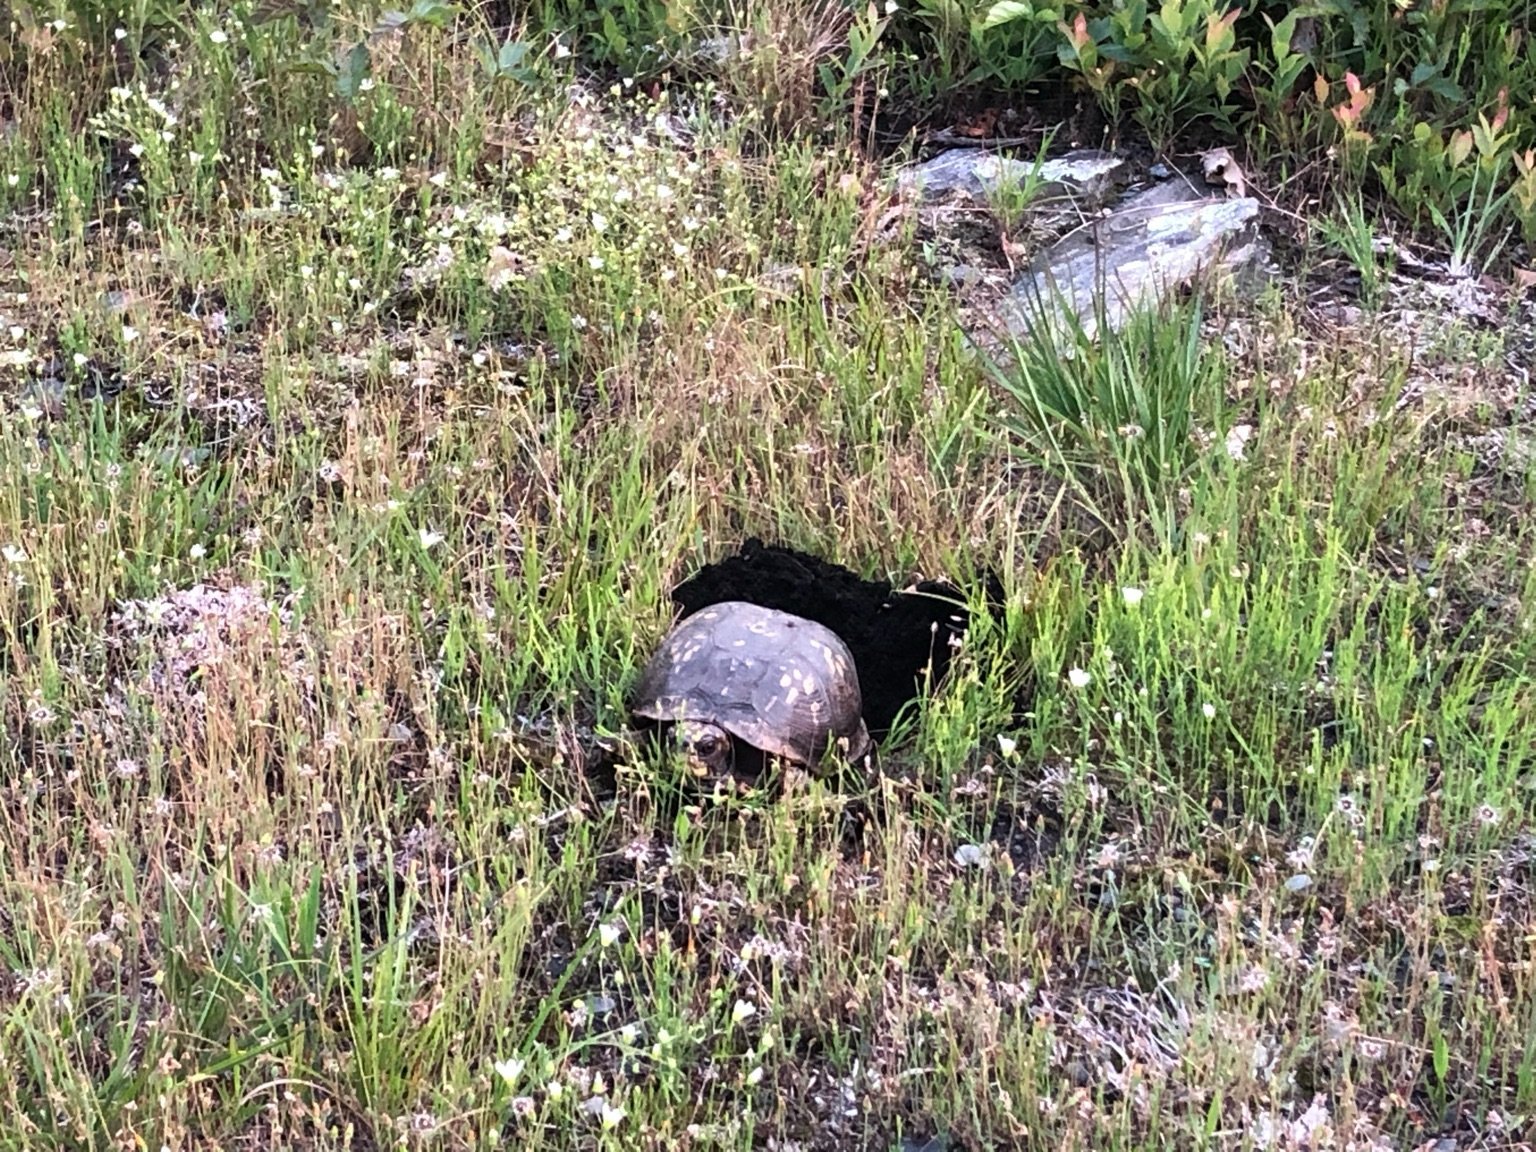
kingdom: Animalia
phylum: Chordata
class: Testudines
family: Emydidae
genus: Terrapene
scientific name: Terrapene carolina
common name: Common box turtle
